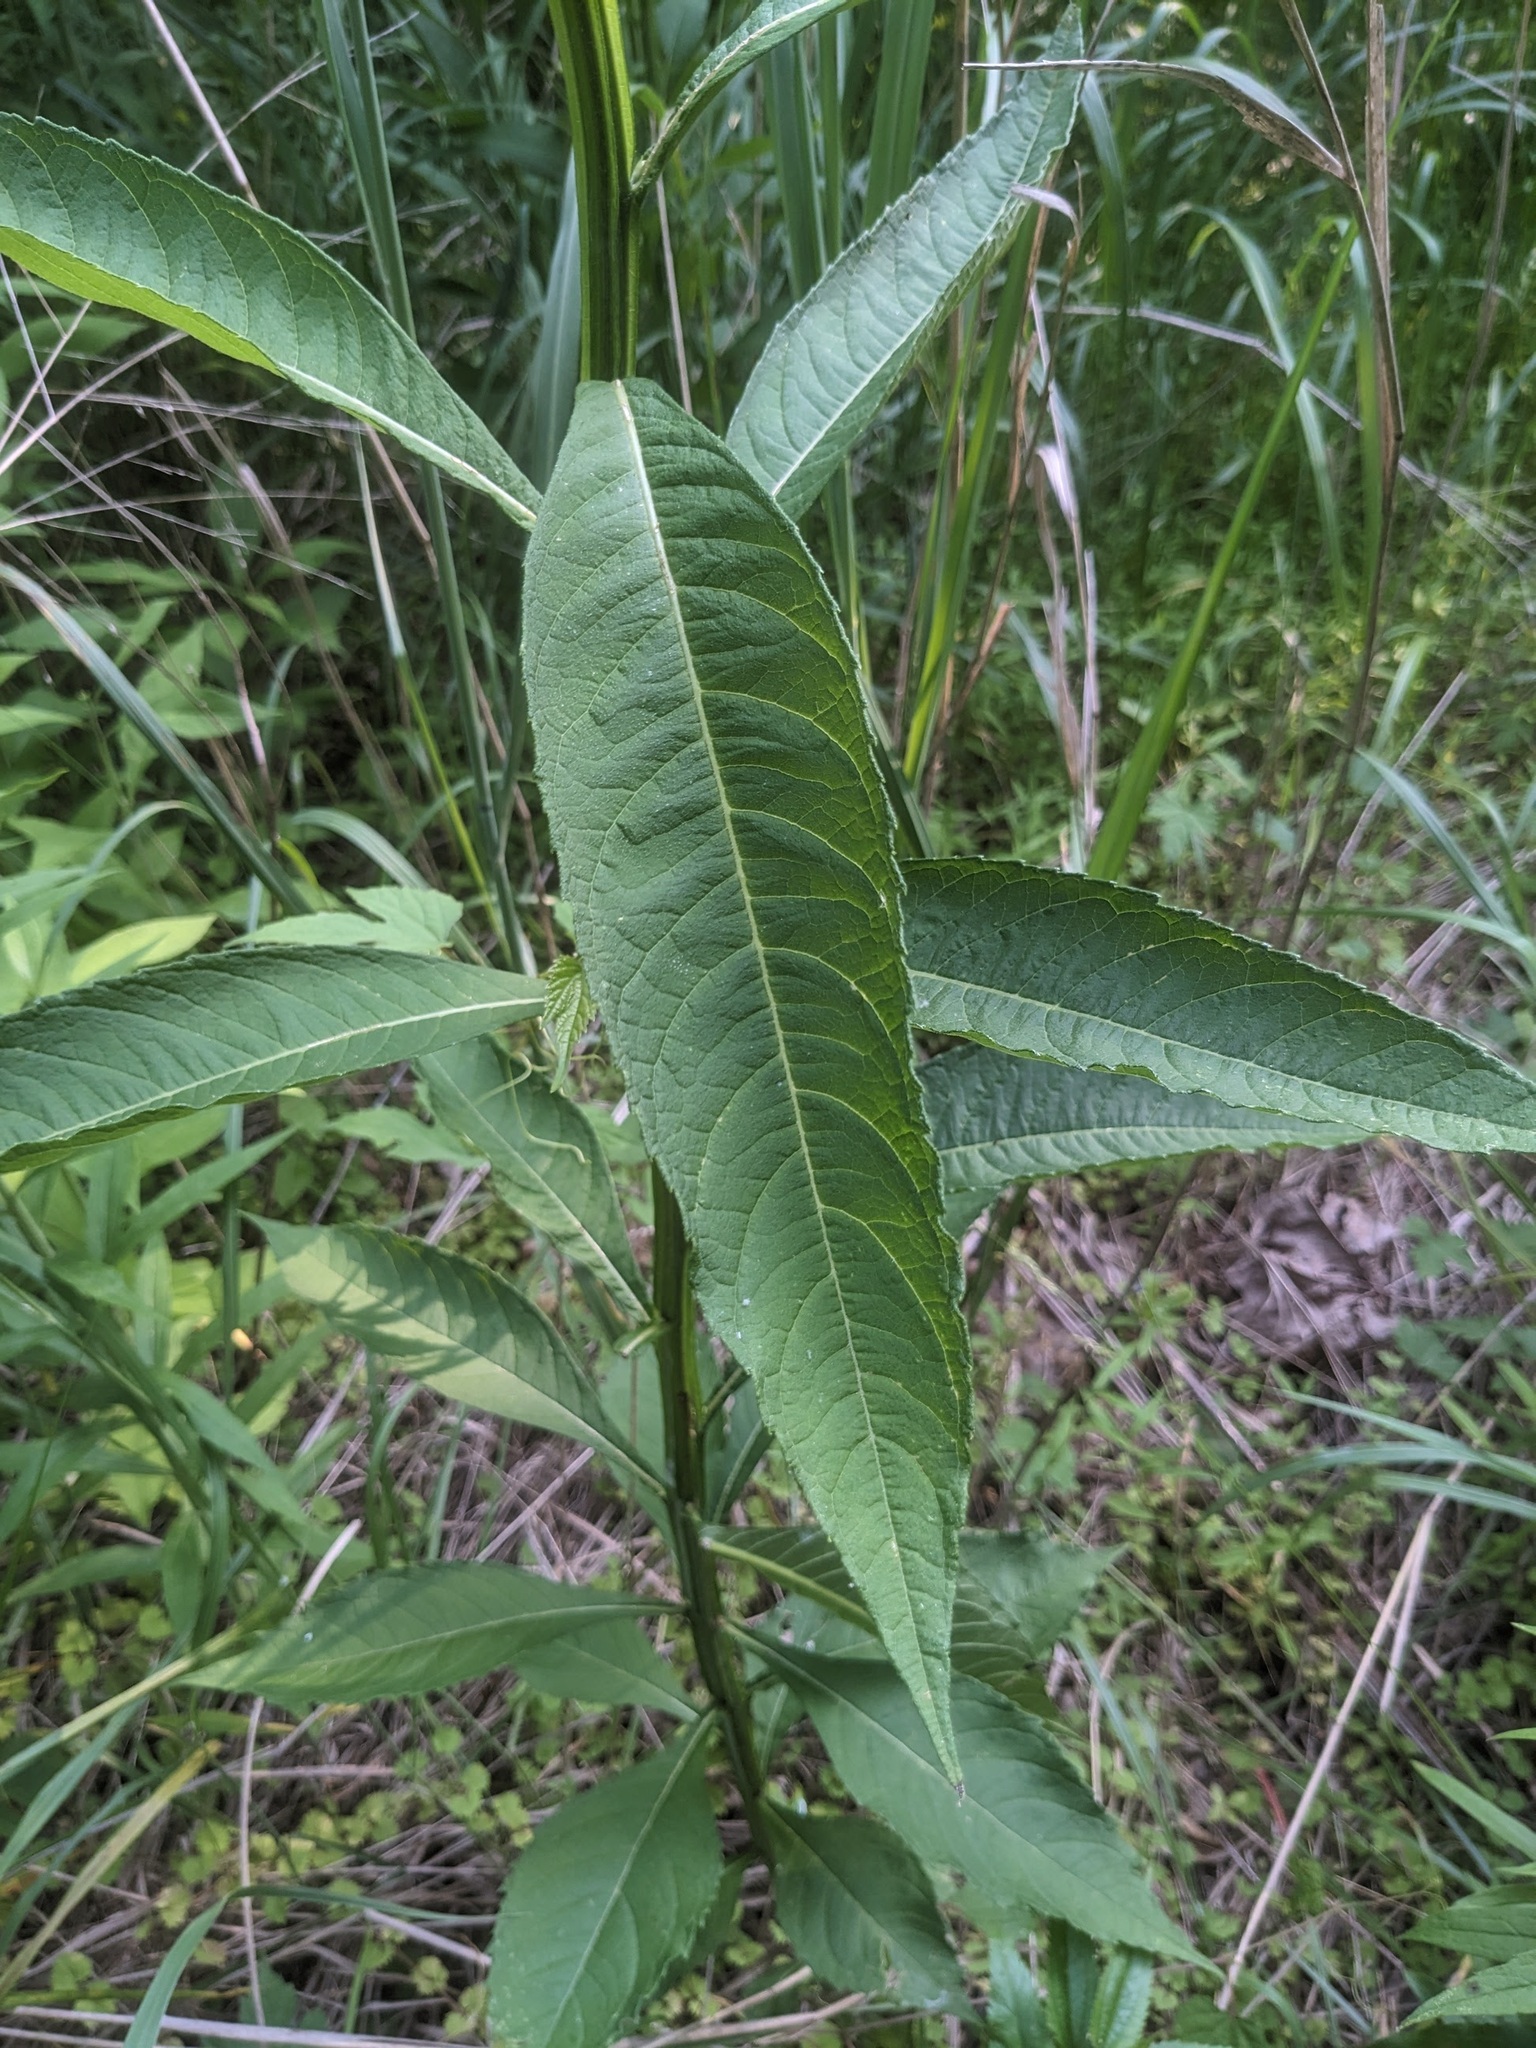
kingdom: Plantae
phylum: Tracheophyta
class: Magnoliopsida
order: Asterales
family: Asteraceae
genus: Verbesina
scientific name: Verbesina alternifolia
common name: Wingstem
